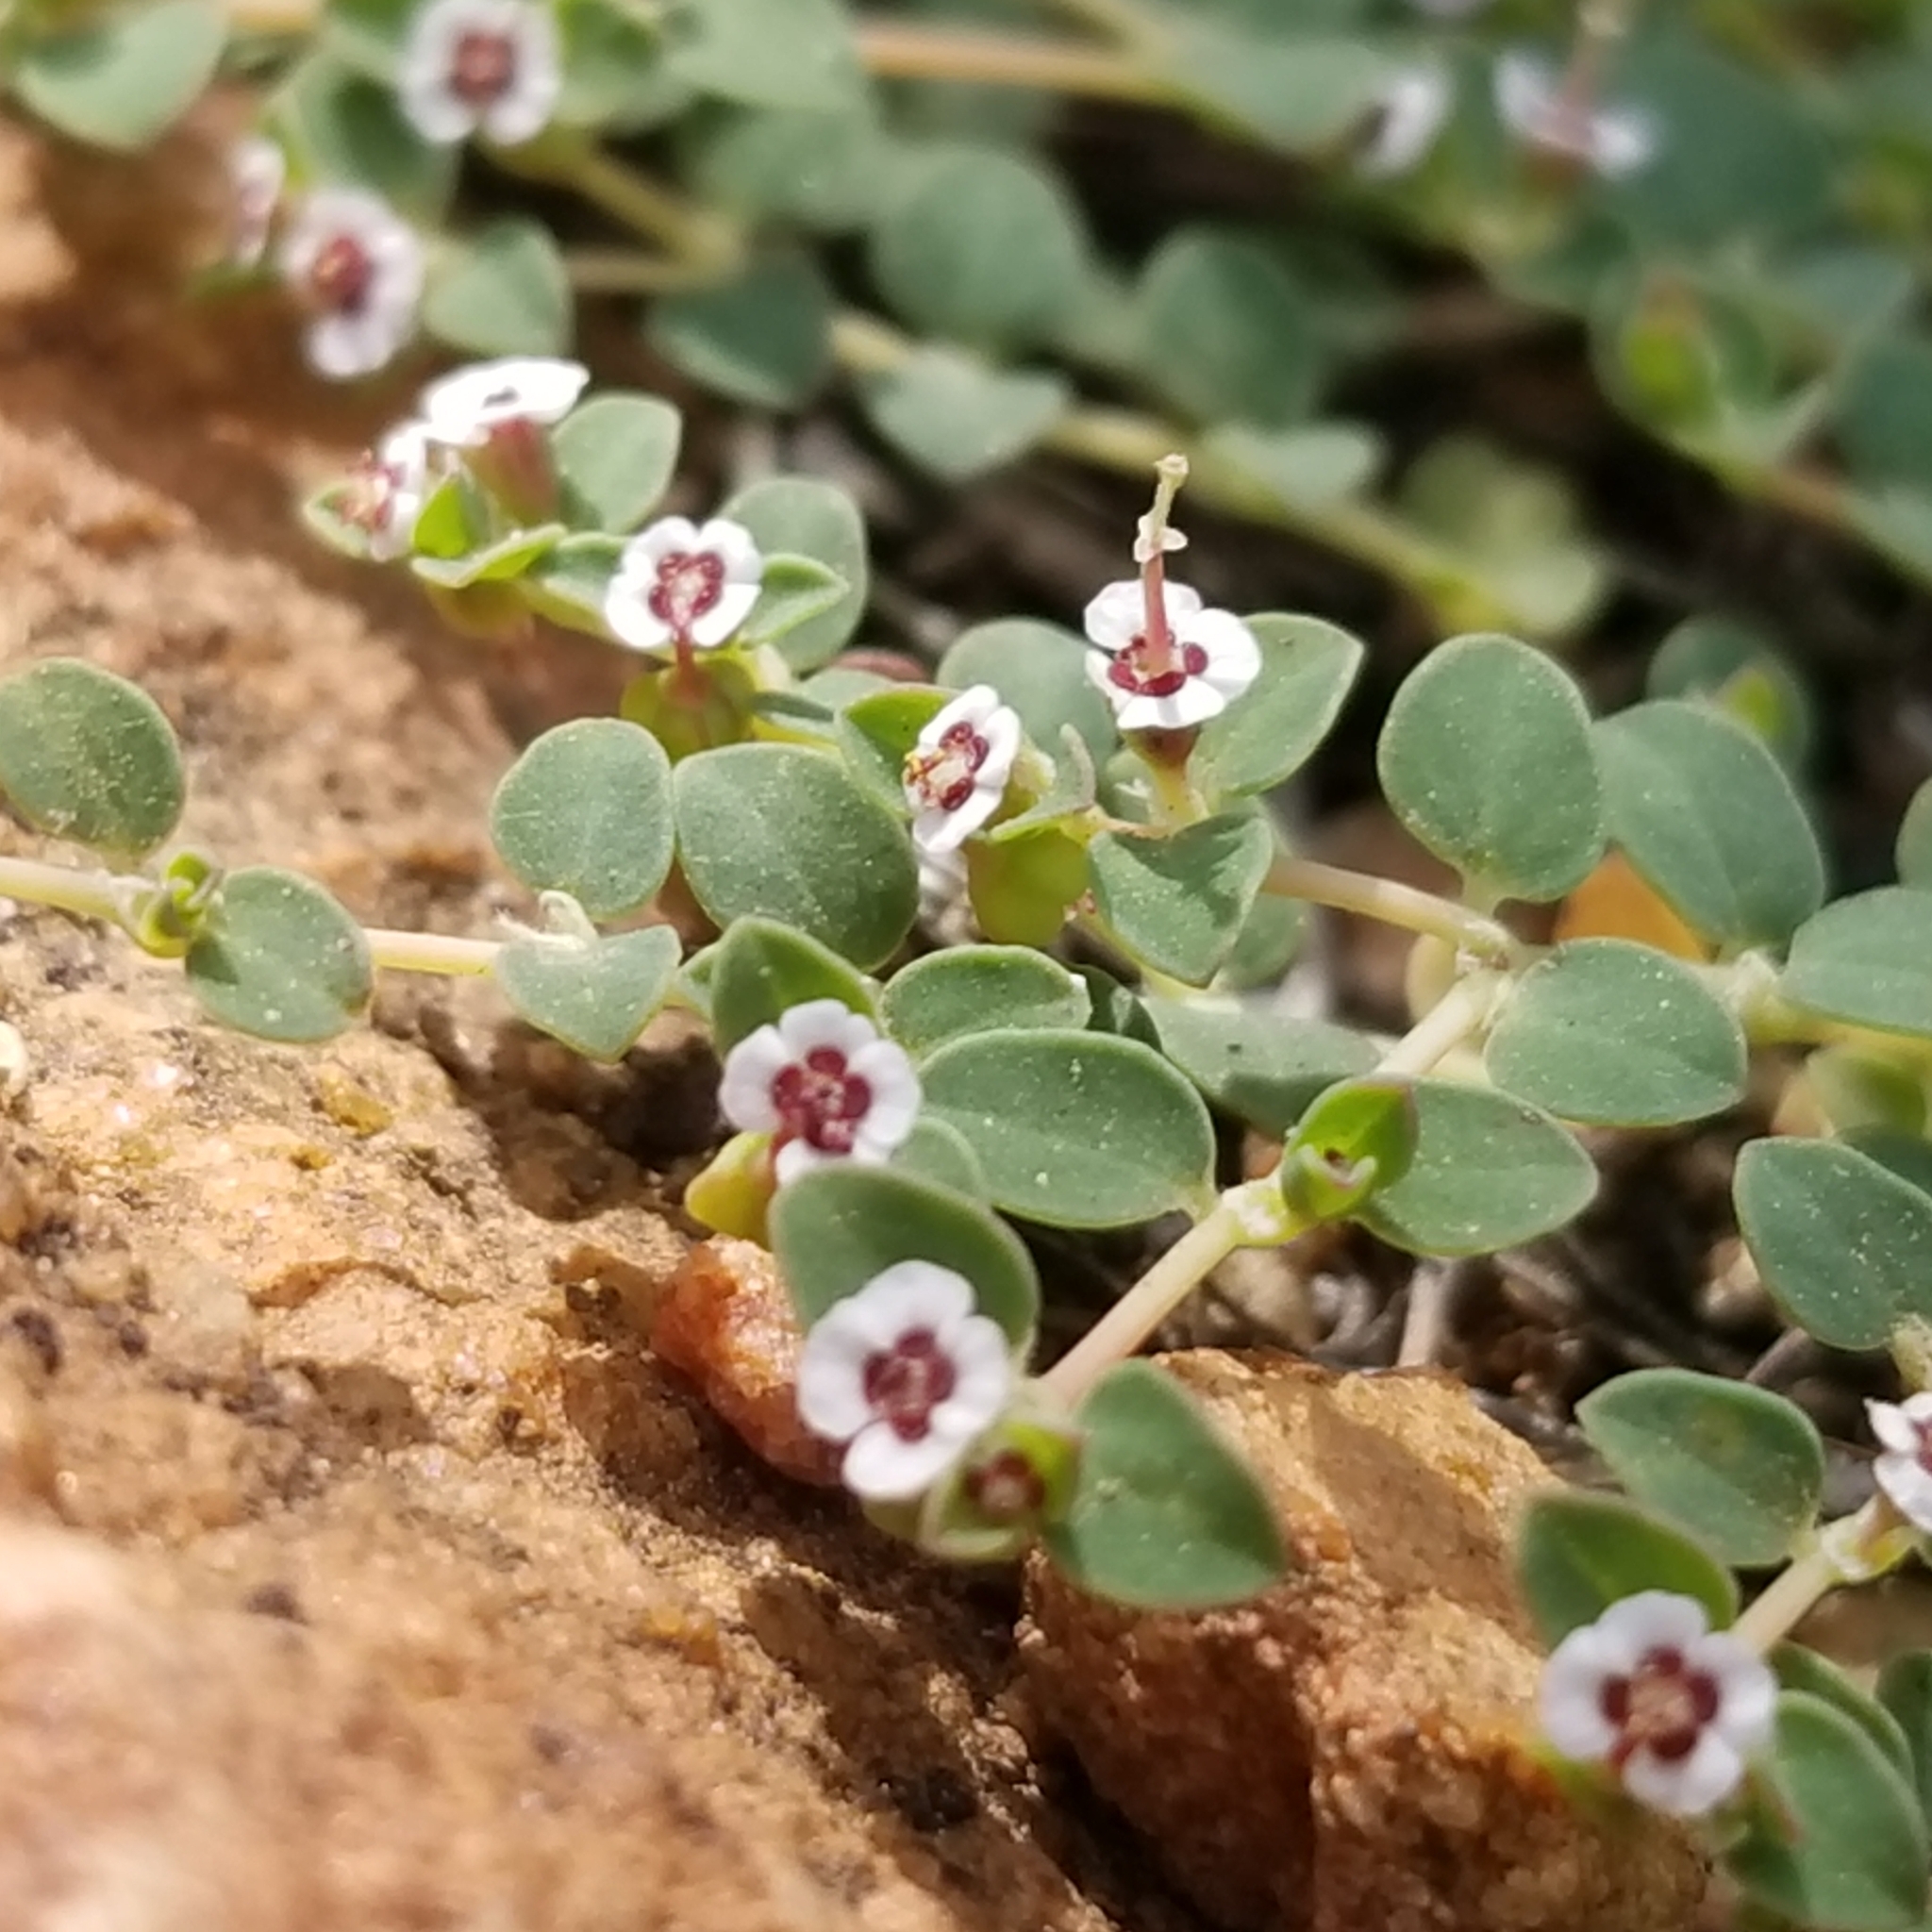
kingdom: Plantae
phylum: Tracheophyta
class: Magnoliopsida
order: Malpighiales
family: Euphorbiaceae
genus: Euphorbia
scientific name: Euphorbia polycarpa
